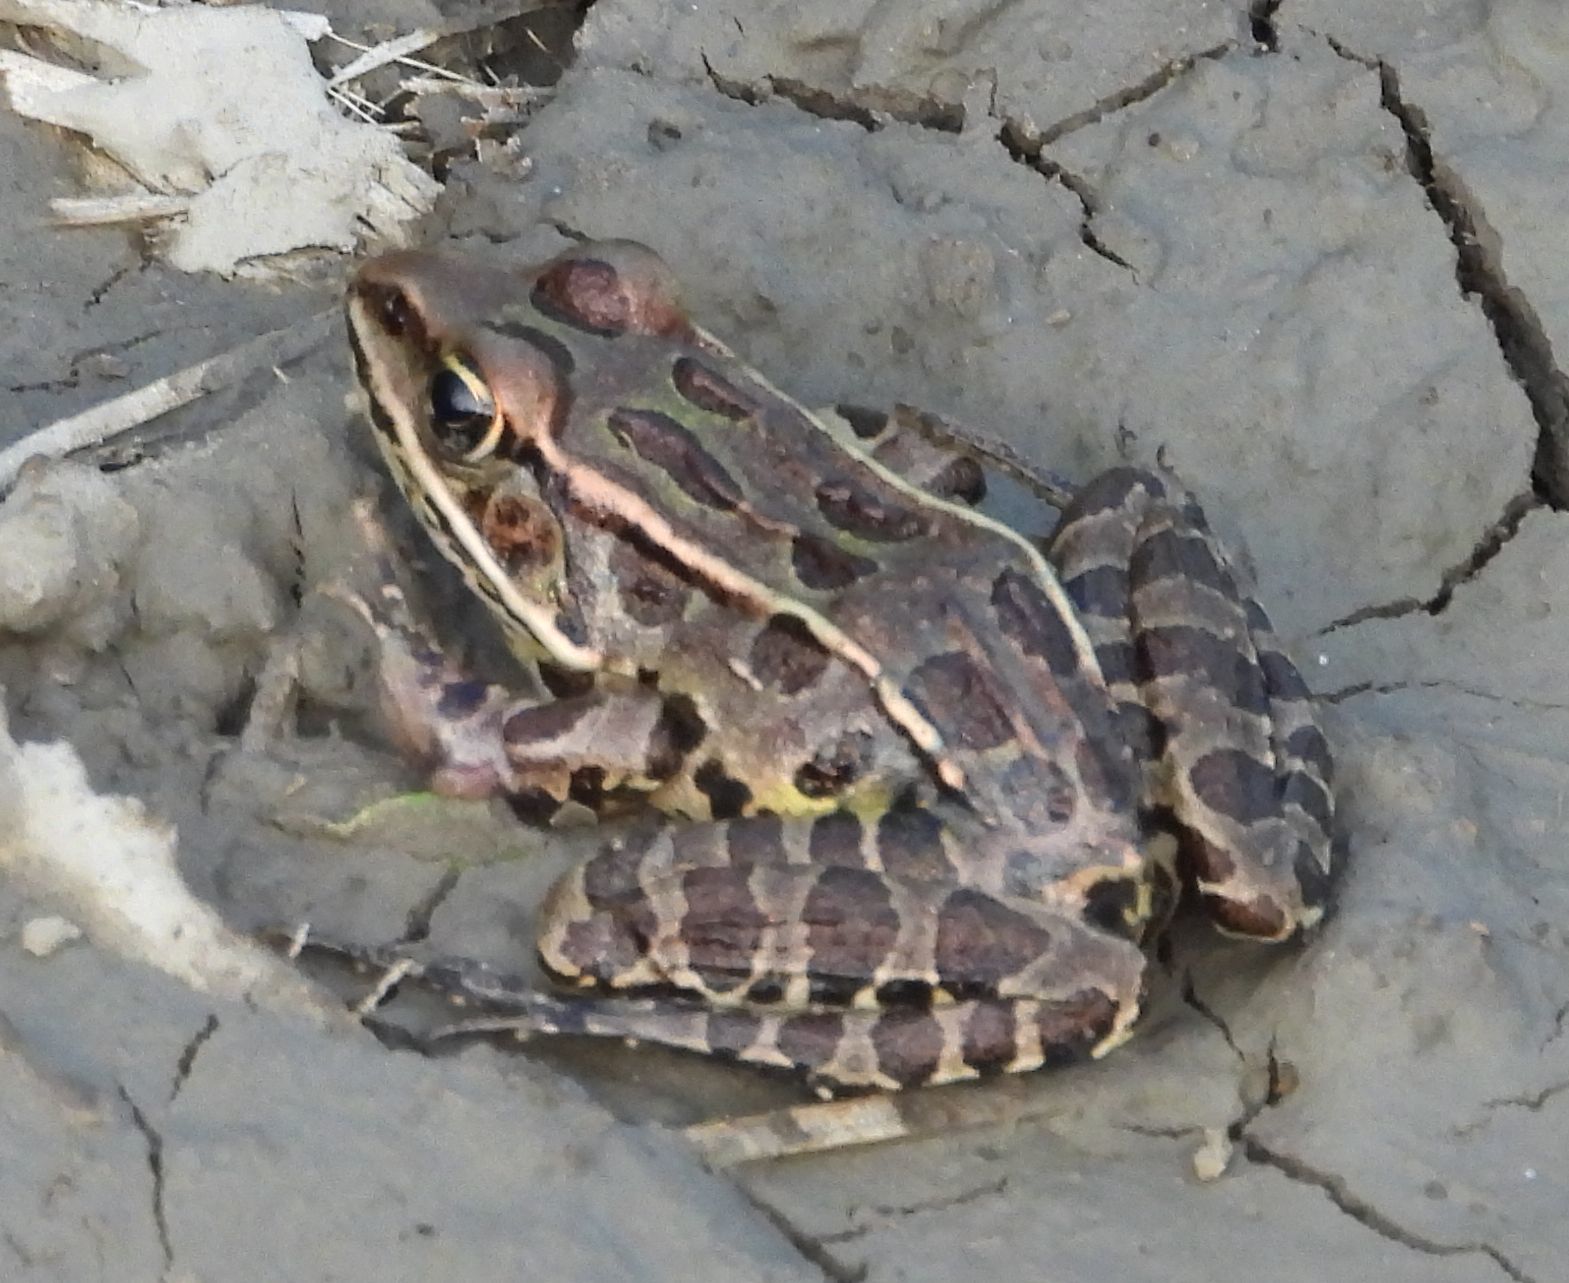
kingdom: Animalia
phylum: Chordata
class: Amphibia
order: Anura
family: Ranidae
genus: Lithobates
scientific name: Lithobates pipiens
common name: Northern leopard frog
